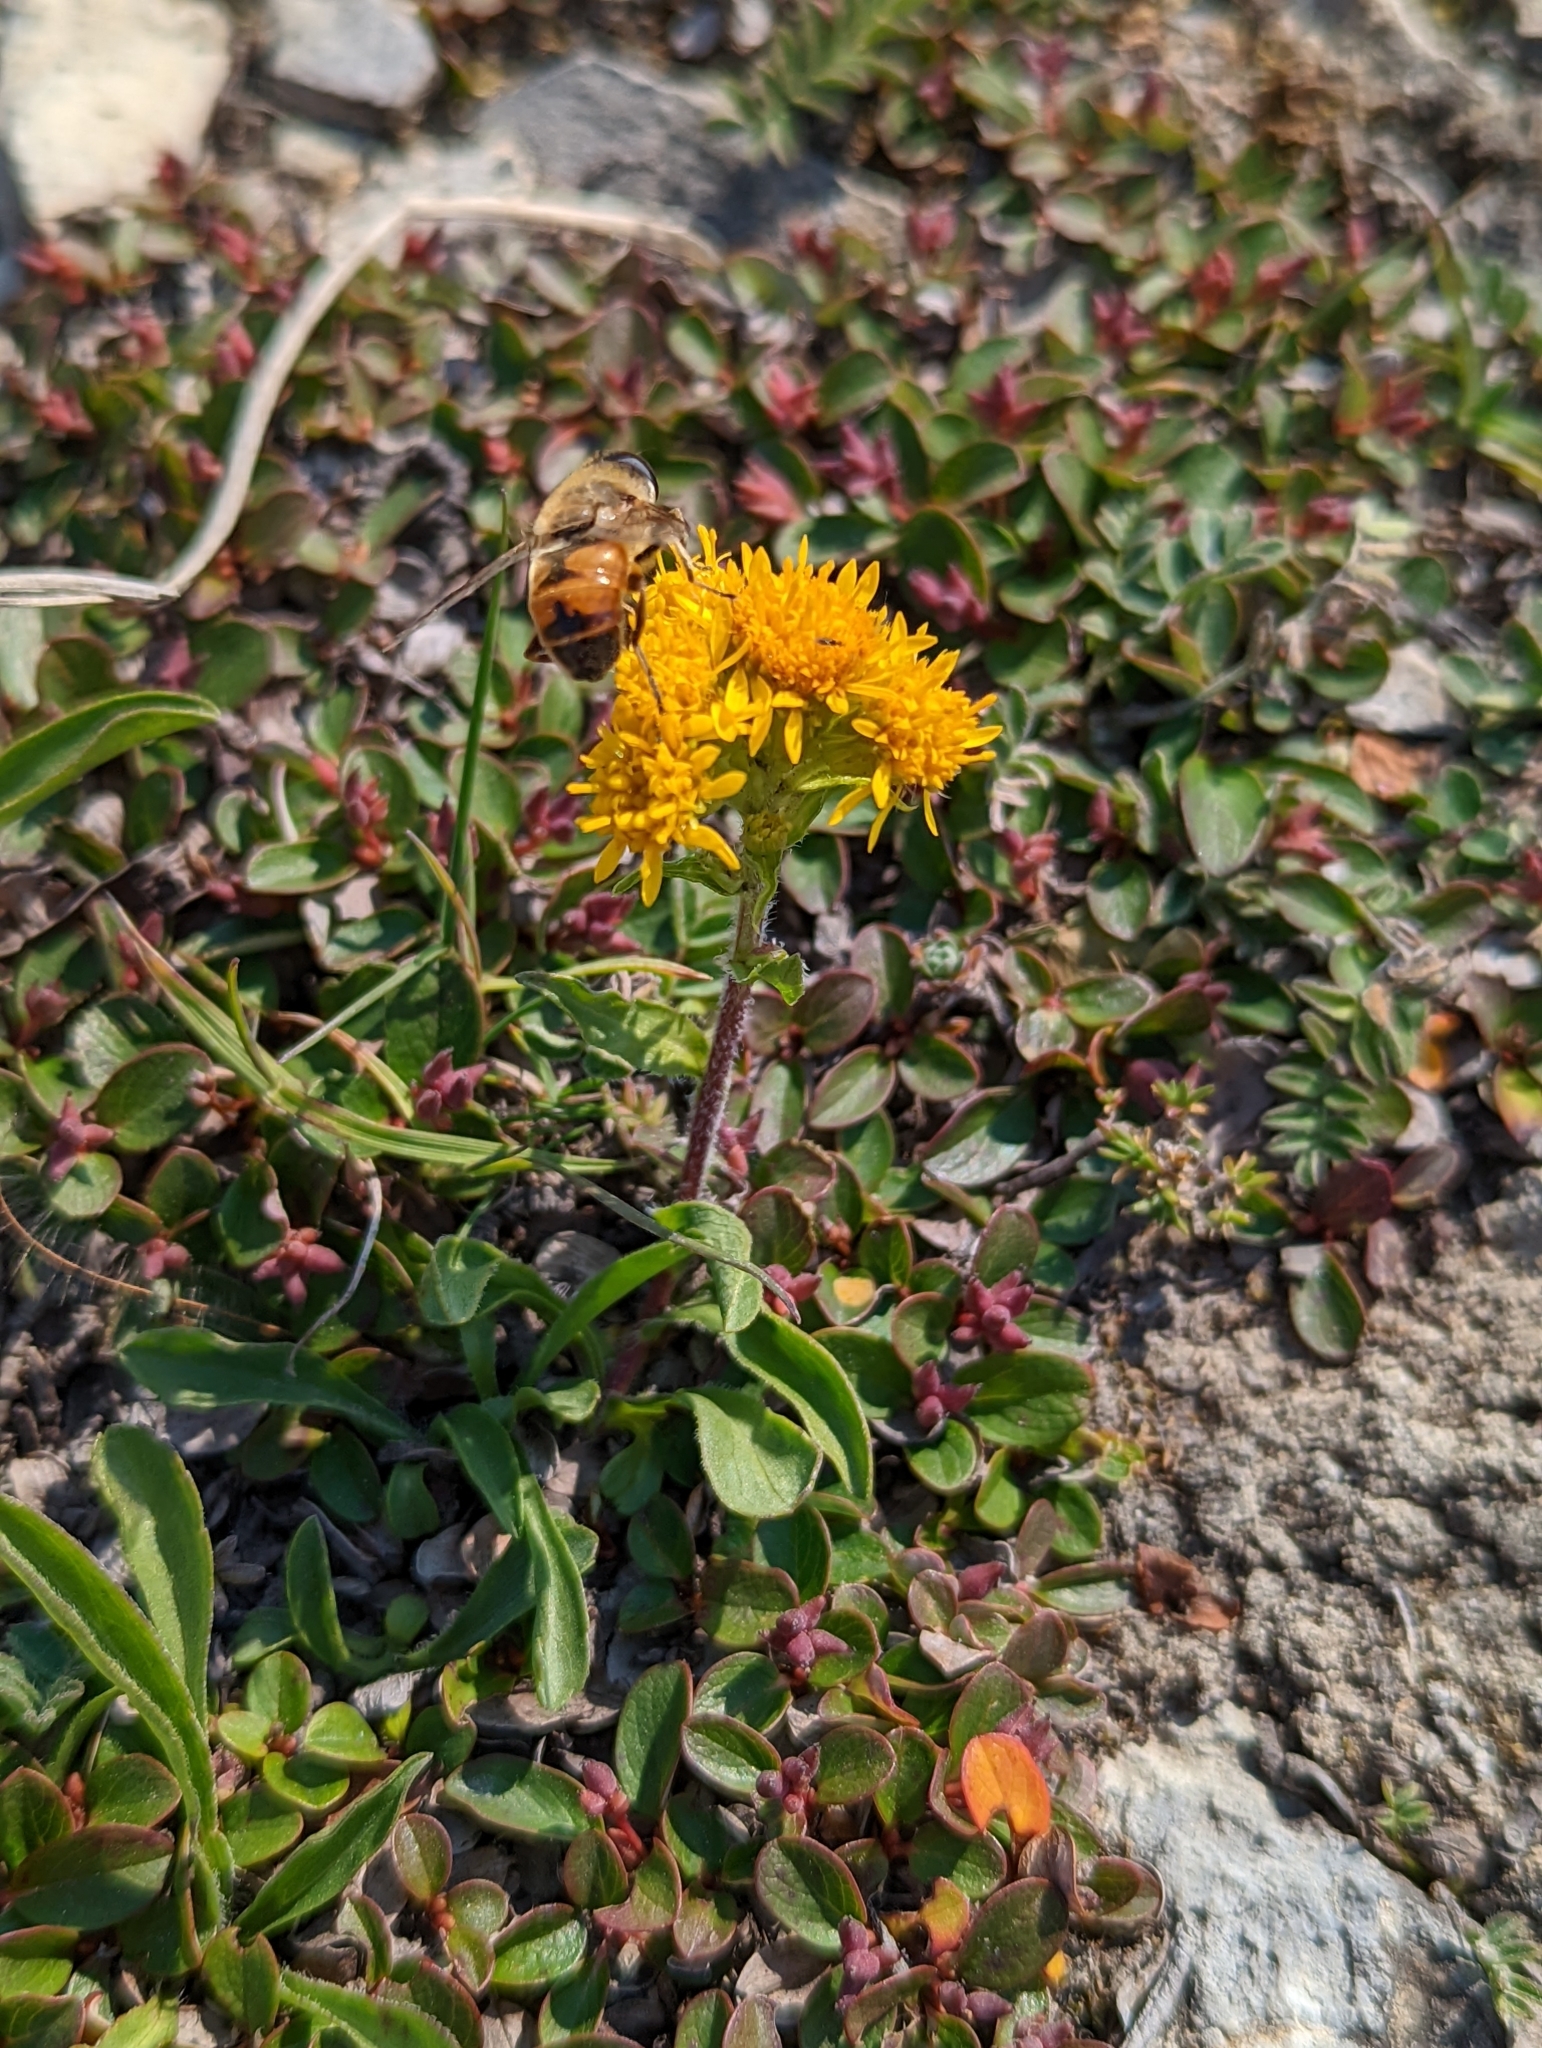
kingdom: Animalia
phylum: Arthropoda
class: Insecta
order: Diptera
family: Syrphidae
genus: Eristalis
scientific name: Eristalis tenax
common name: Drone fly
